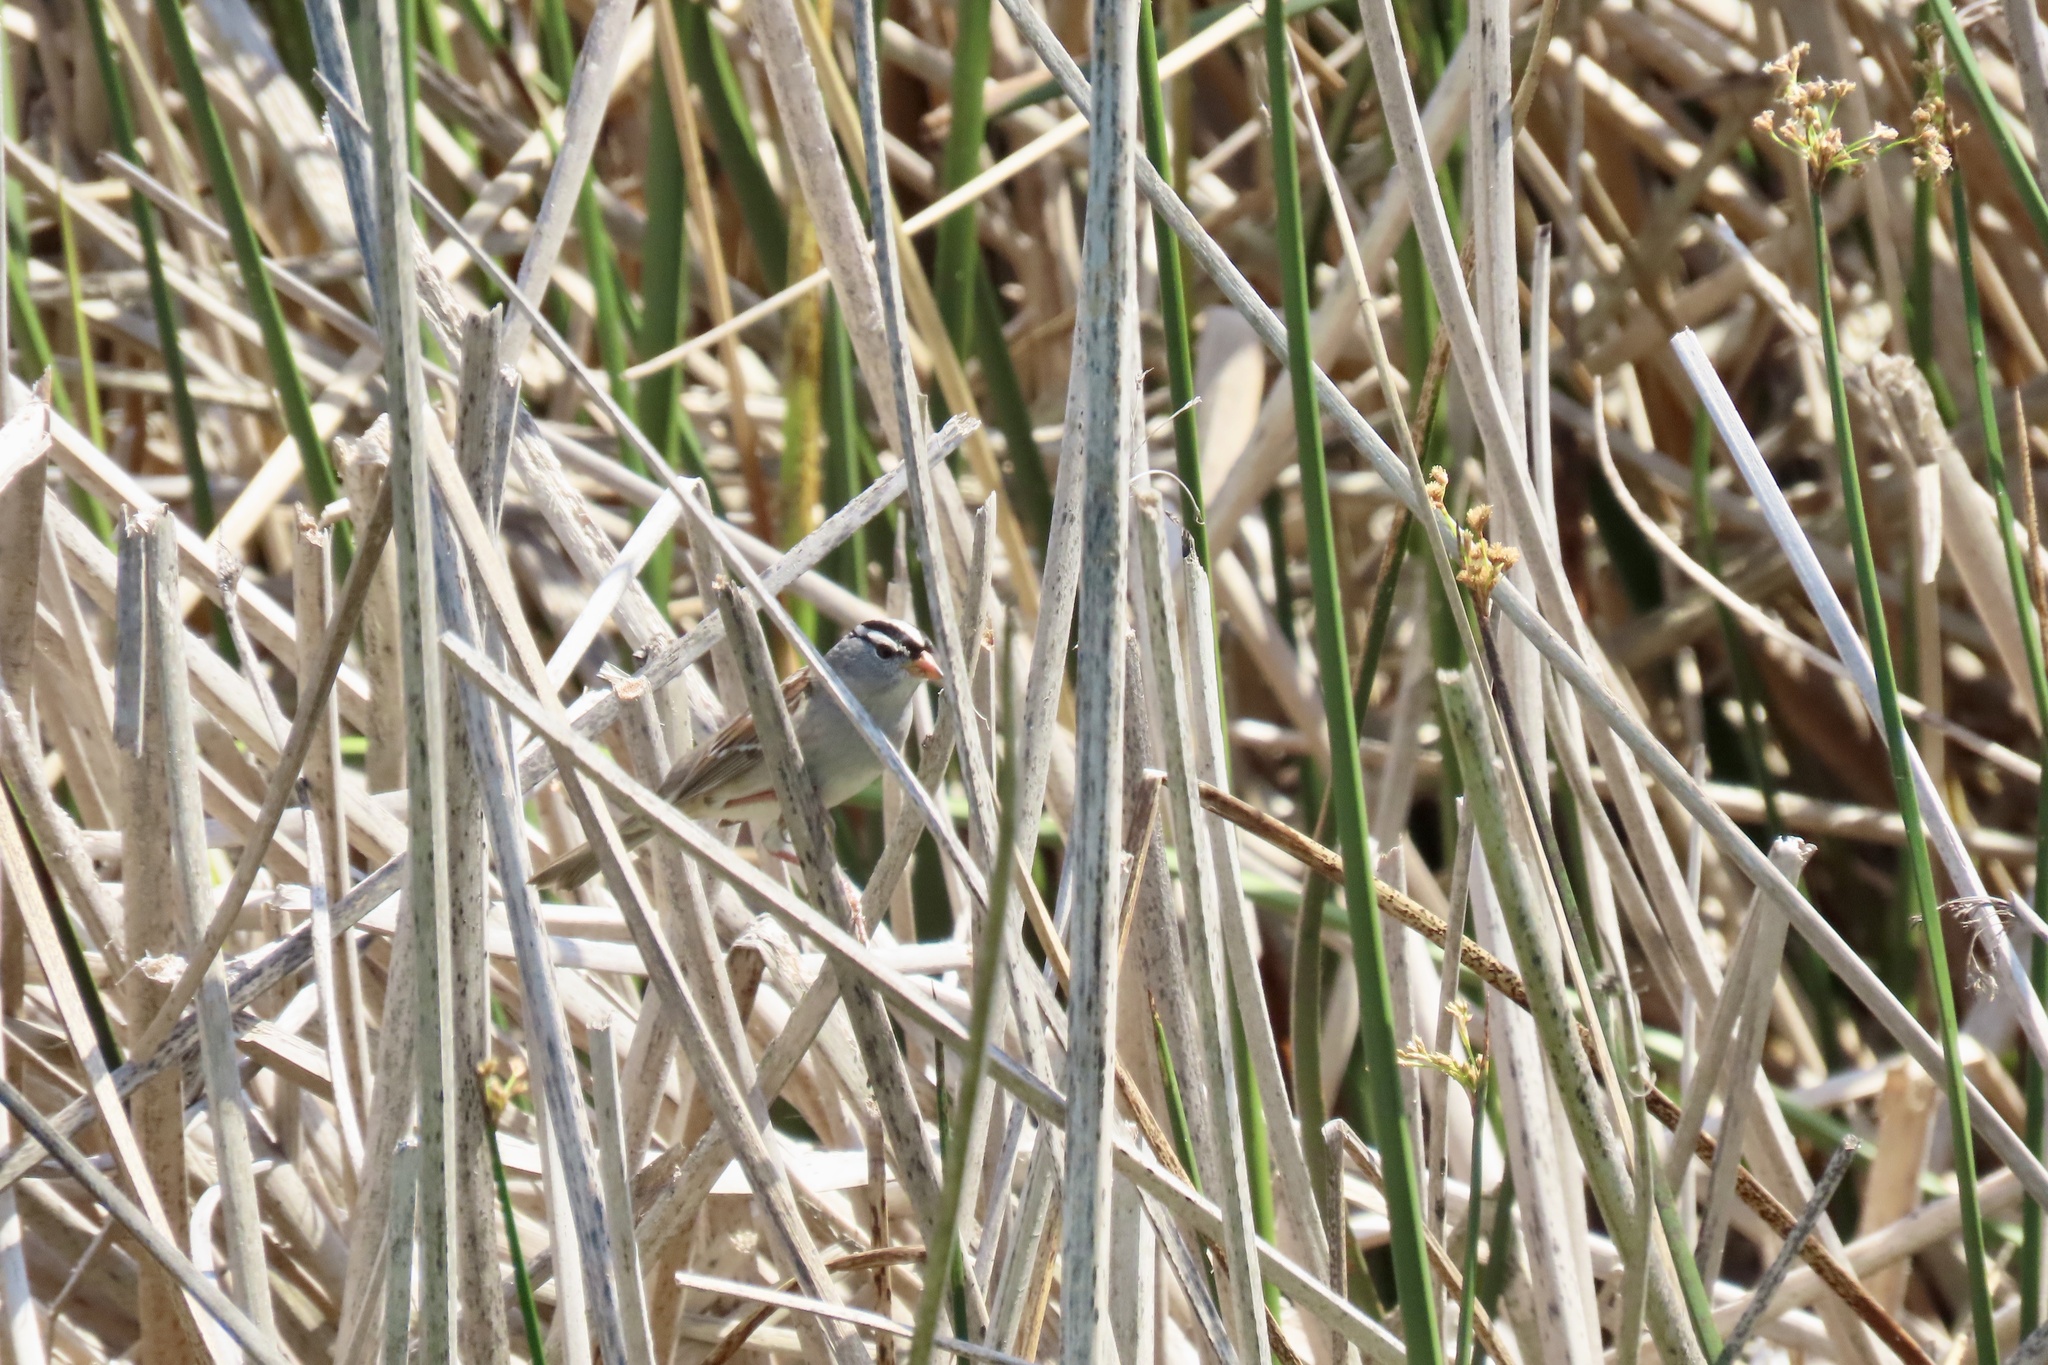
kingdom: Animalia
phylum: Chordata
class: Aves
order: Passeriformes
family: Passerellidae
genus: Zonotrichia
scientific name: Zonotrichia leucophrys
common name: White-crowned sparrow
